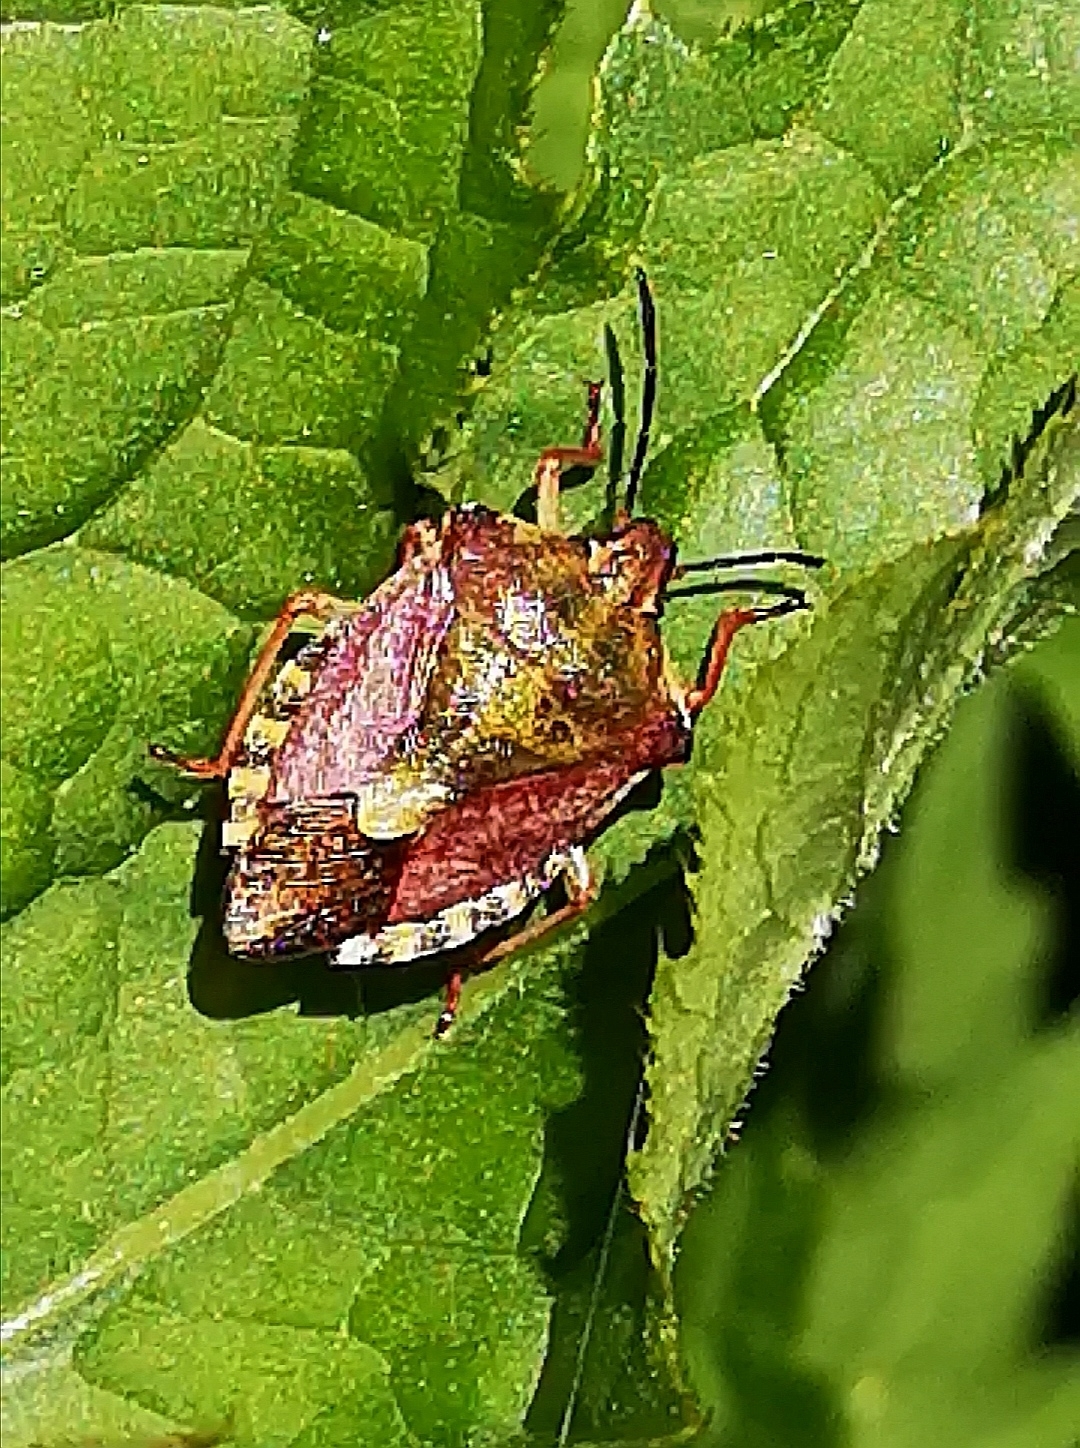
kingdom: Animalia
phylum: Arthropoda
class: Insecta
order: Hemiptera
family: Pentatomidae
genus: Carpocoris
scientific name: Carpocoris purpureipennis
